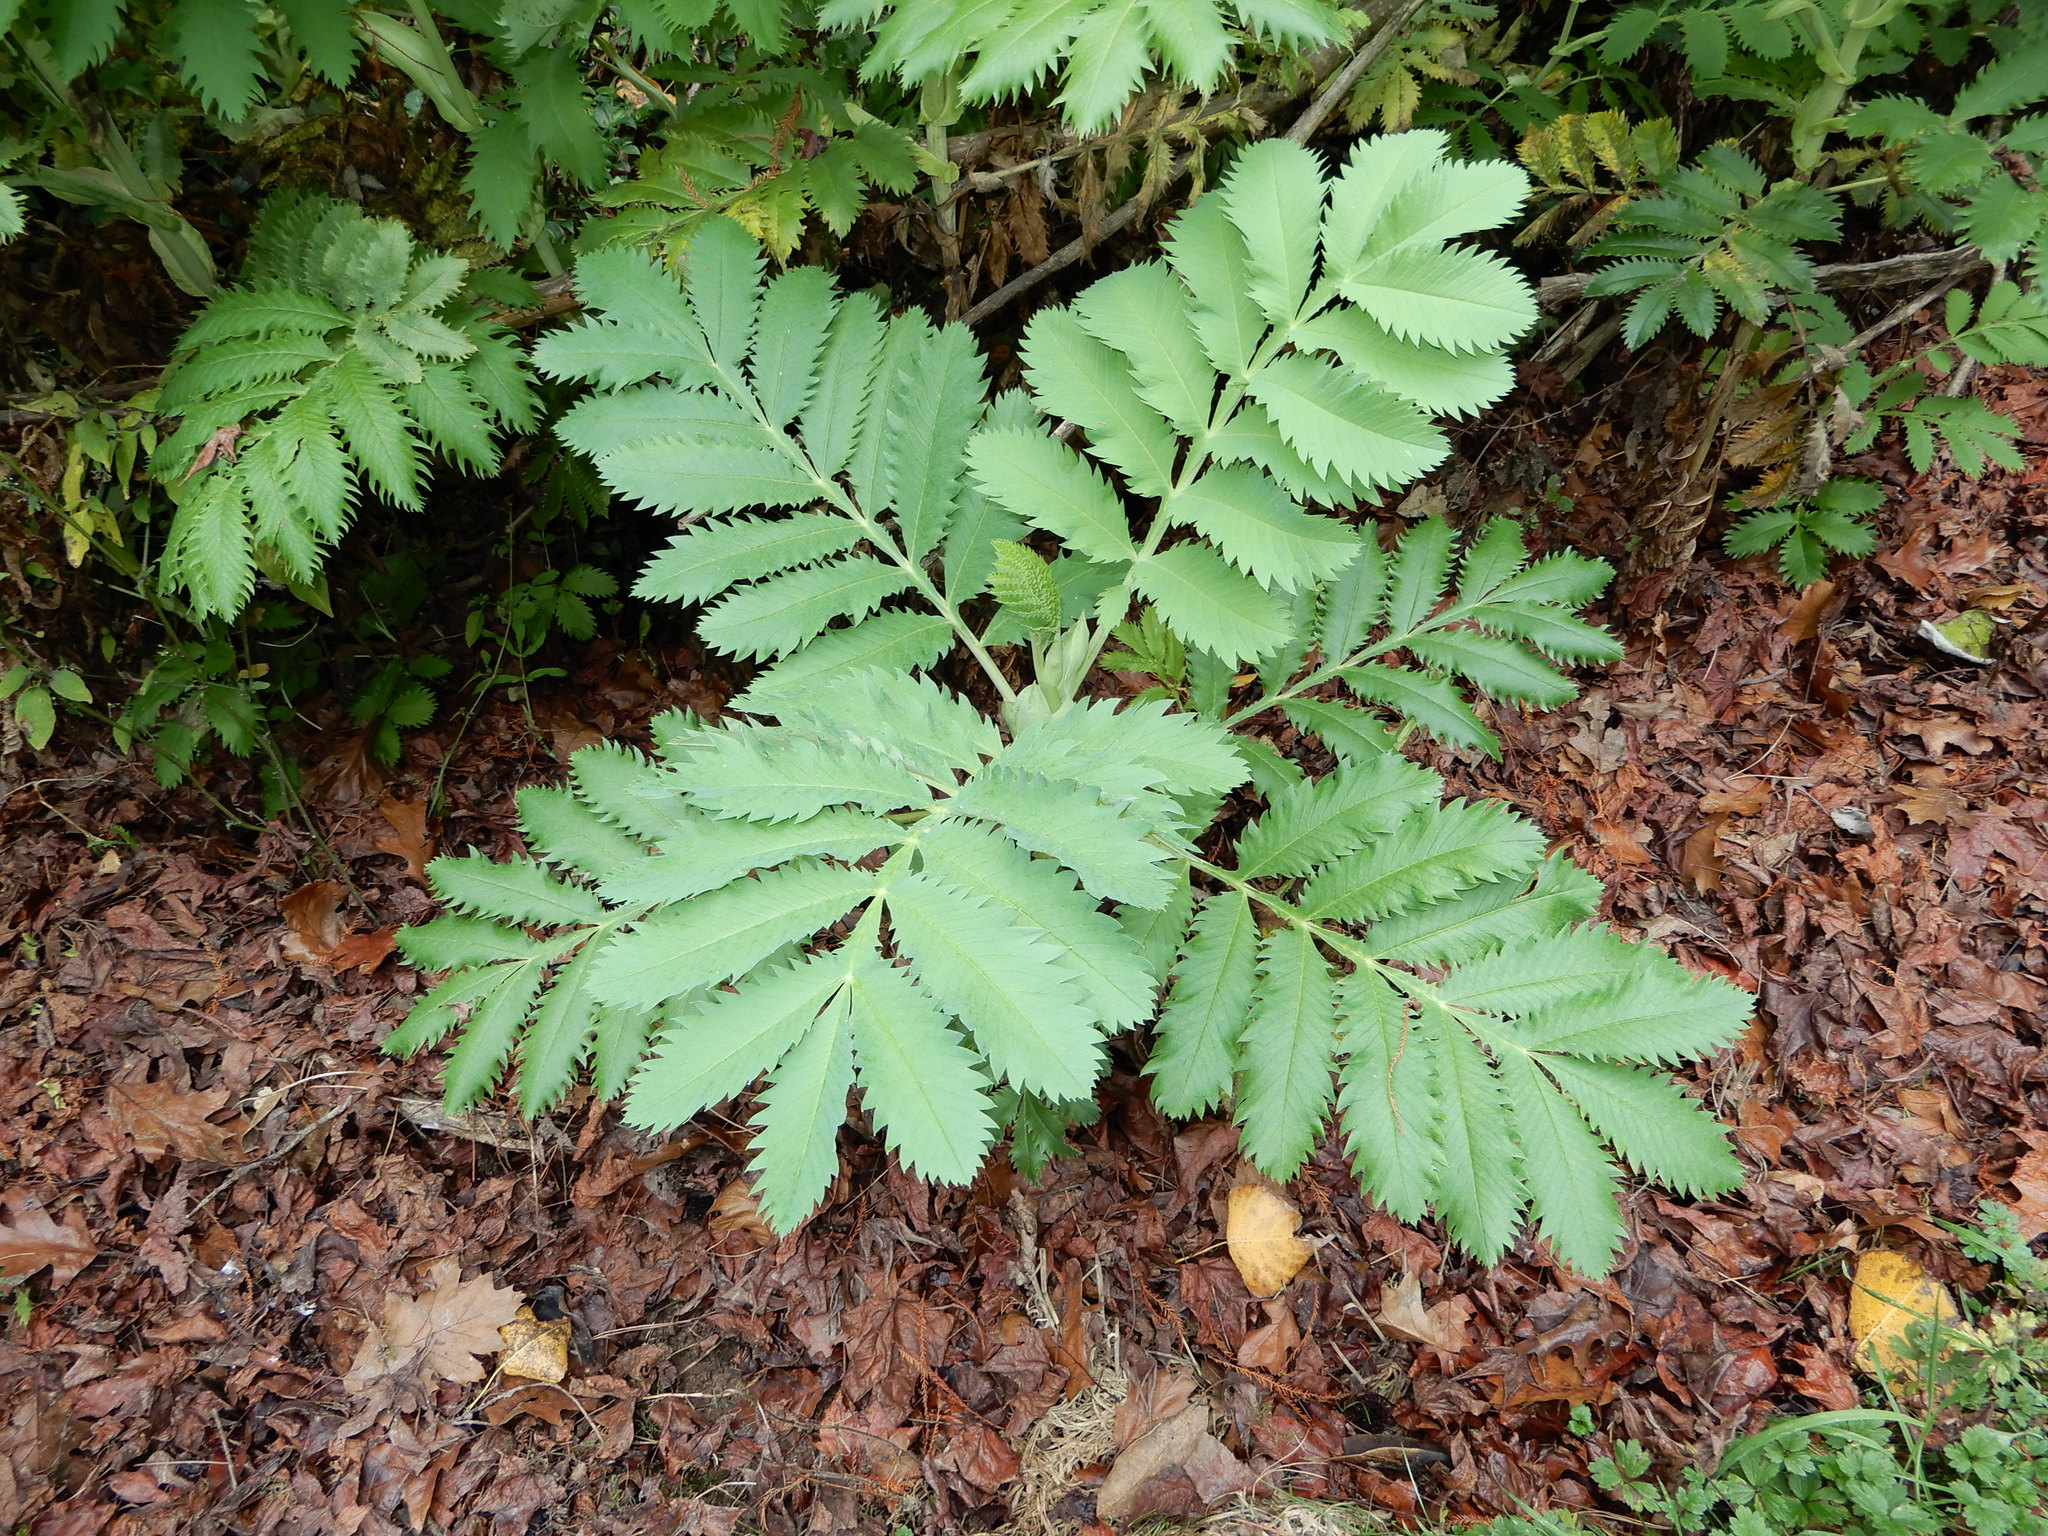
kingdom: Plantae
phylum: Tracheophyta
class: Magnoliopsida
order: Geraniales
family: Melianthaceae
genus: Melianthus
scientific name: Melianthus major
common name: Honey-flower
